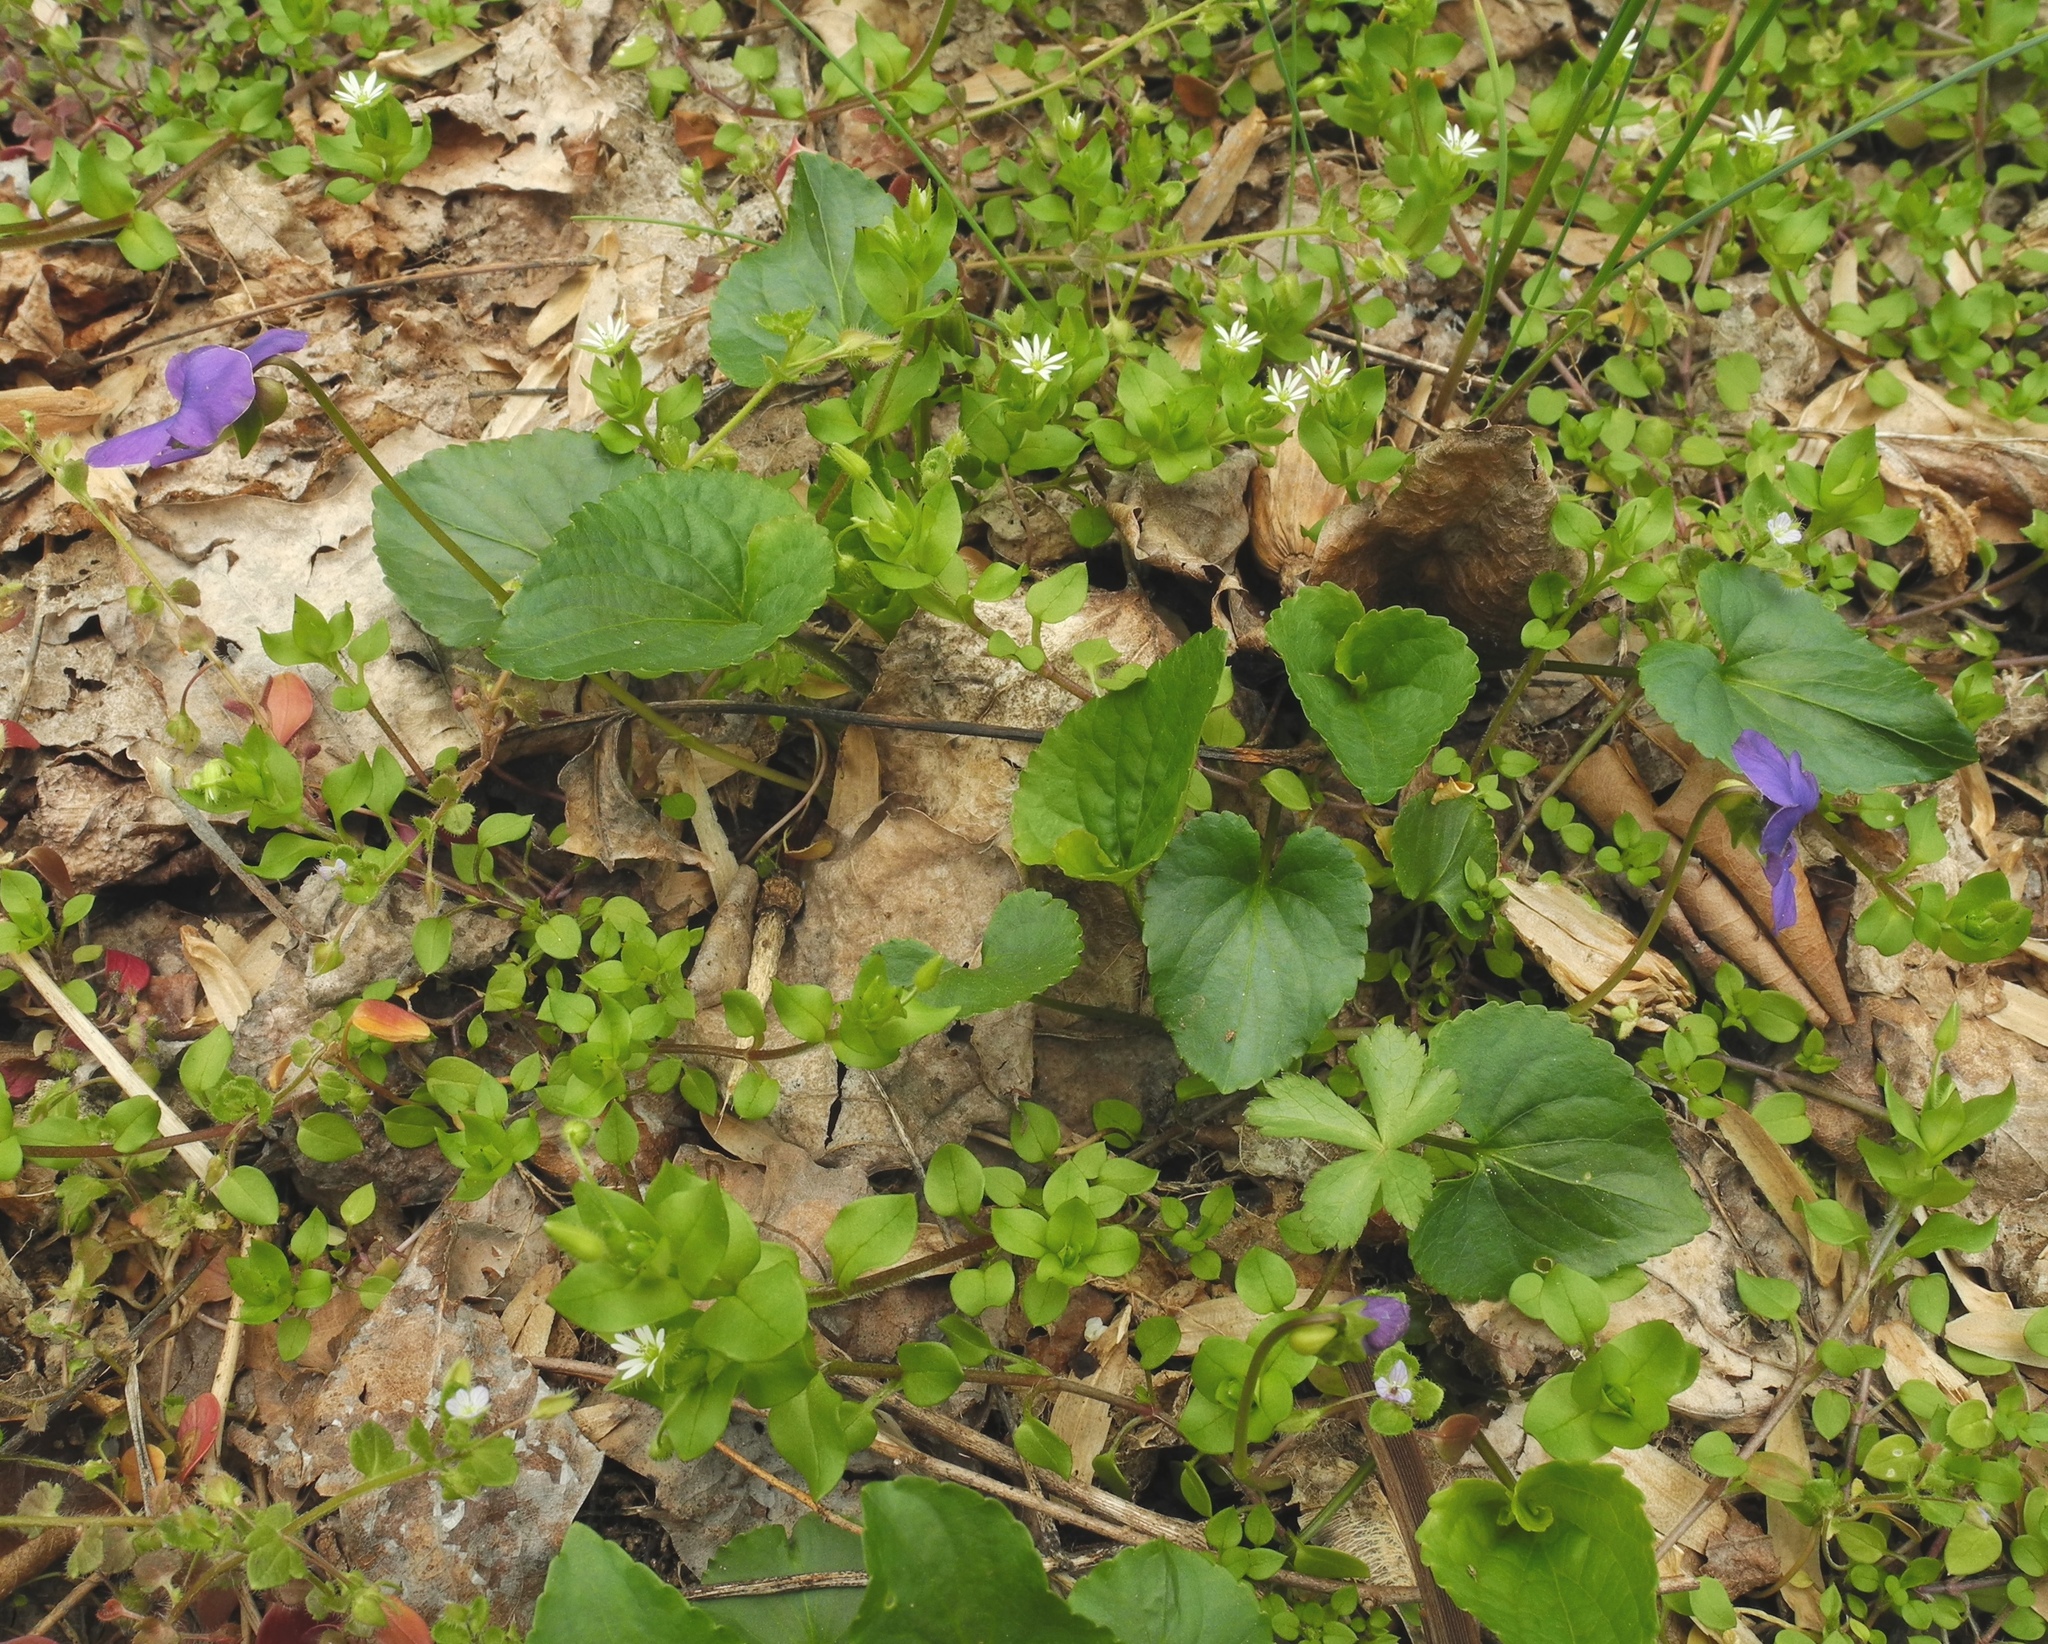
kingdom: Plantae
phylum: Tracheophyta
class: Magnoliopsida
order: Malpighiales
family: Violaceae
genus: Viola
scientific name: Viola sororia
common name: Dooryard violet
